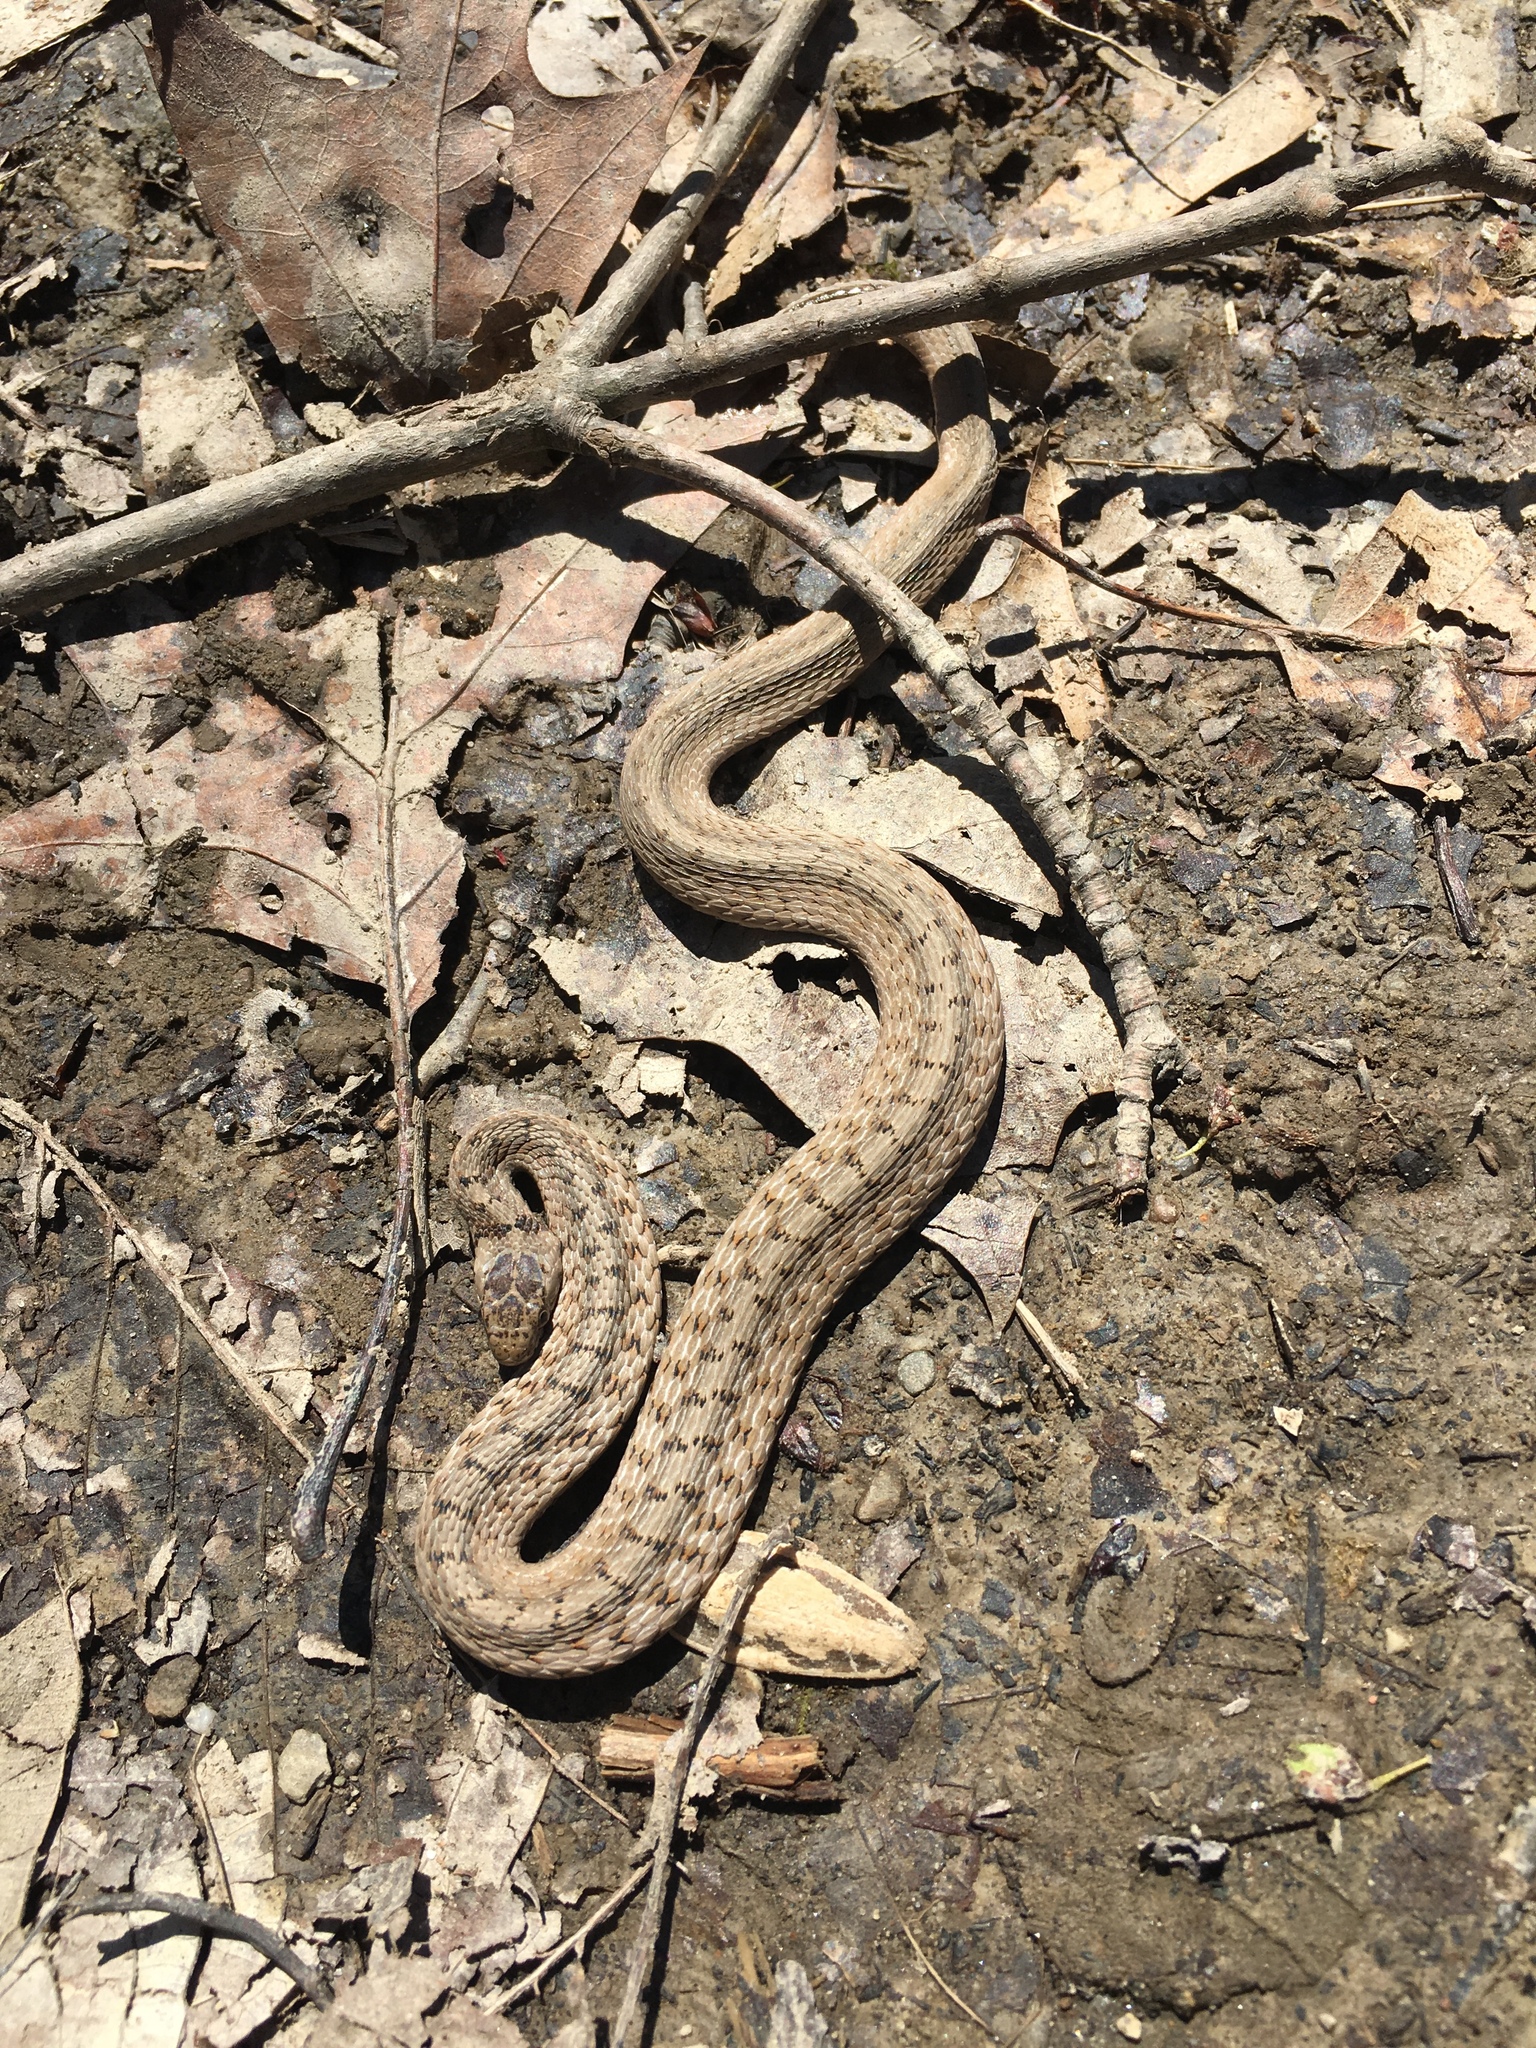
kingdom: Animalia
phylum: Chordata
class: Squamata
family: Colubridae
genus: Storeria
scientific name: Storeria dekayi
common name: (dekay’s) brown snake
